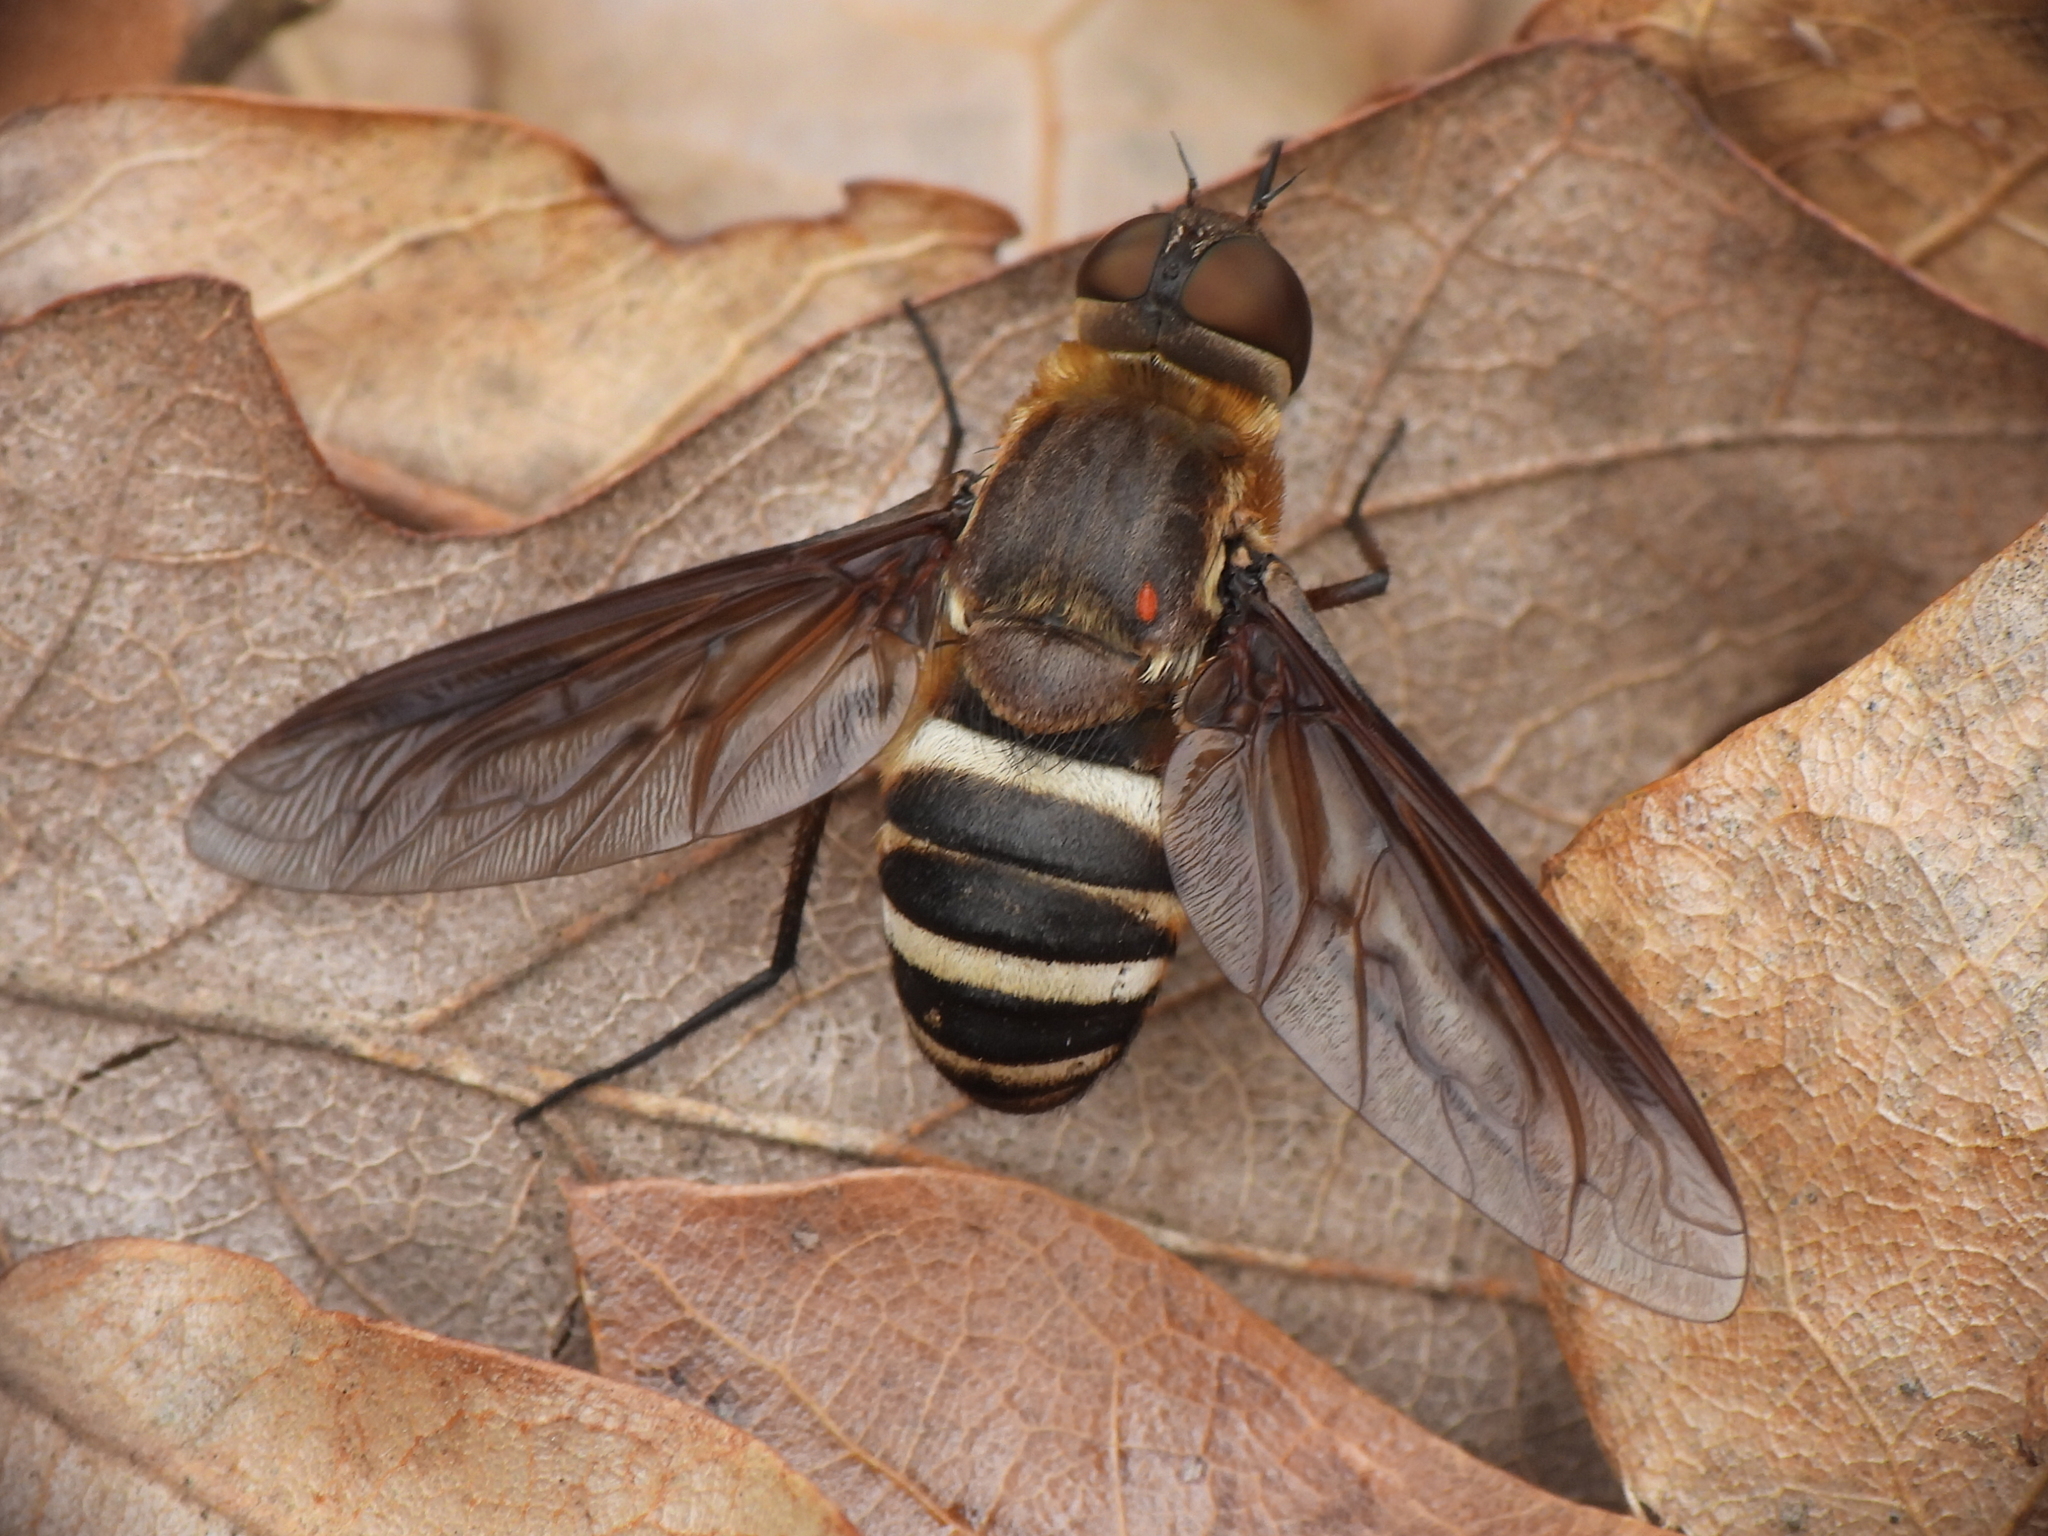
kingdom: Animalia
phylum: Arthropoda
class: Insecta
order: Diptera
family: Bombyliidae
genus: Exoprosopa
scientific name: Exoprosopa fasciata
